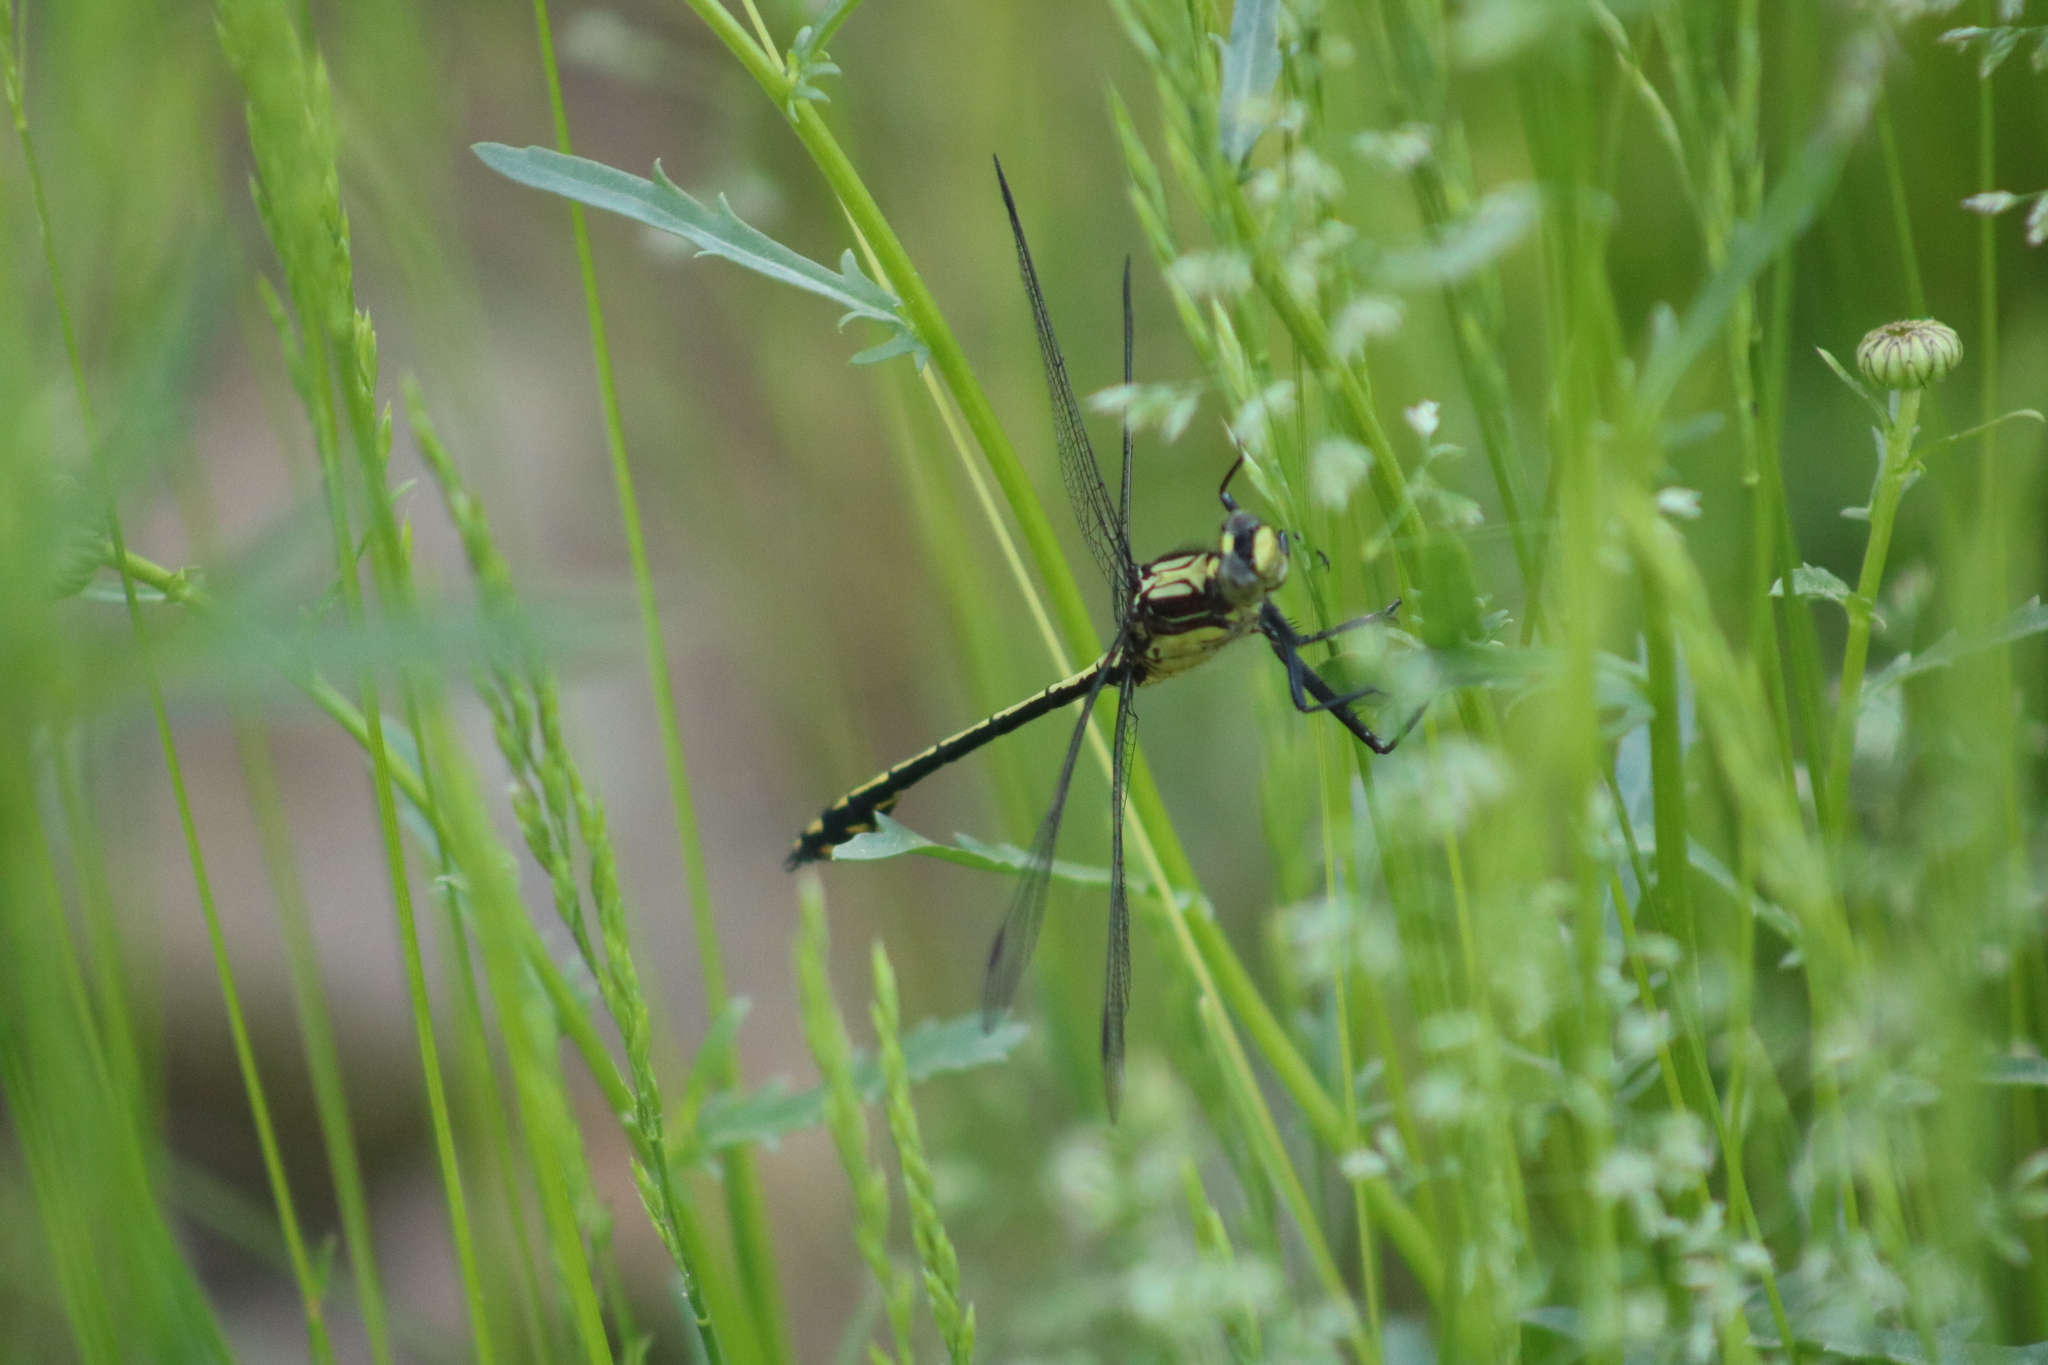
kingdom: Animalia
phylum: Arthropoda
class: Insecta
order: Odonata
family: Gomphidae
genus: Dromogomphus
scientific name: Dromogomphus spinosus
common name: Black-shouldered spinyleg
